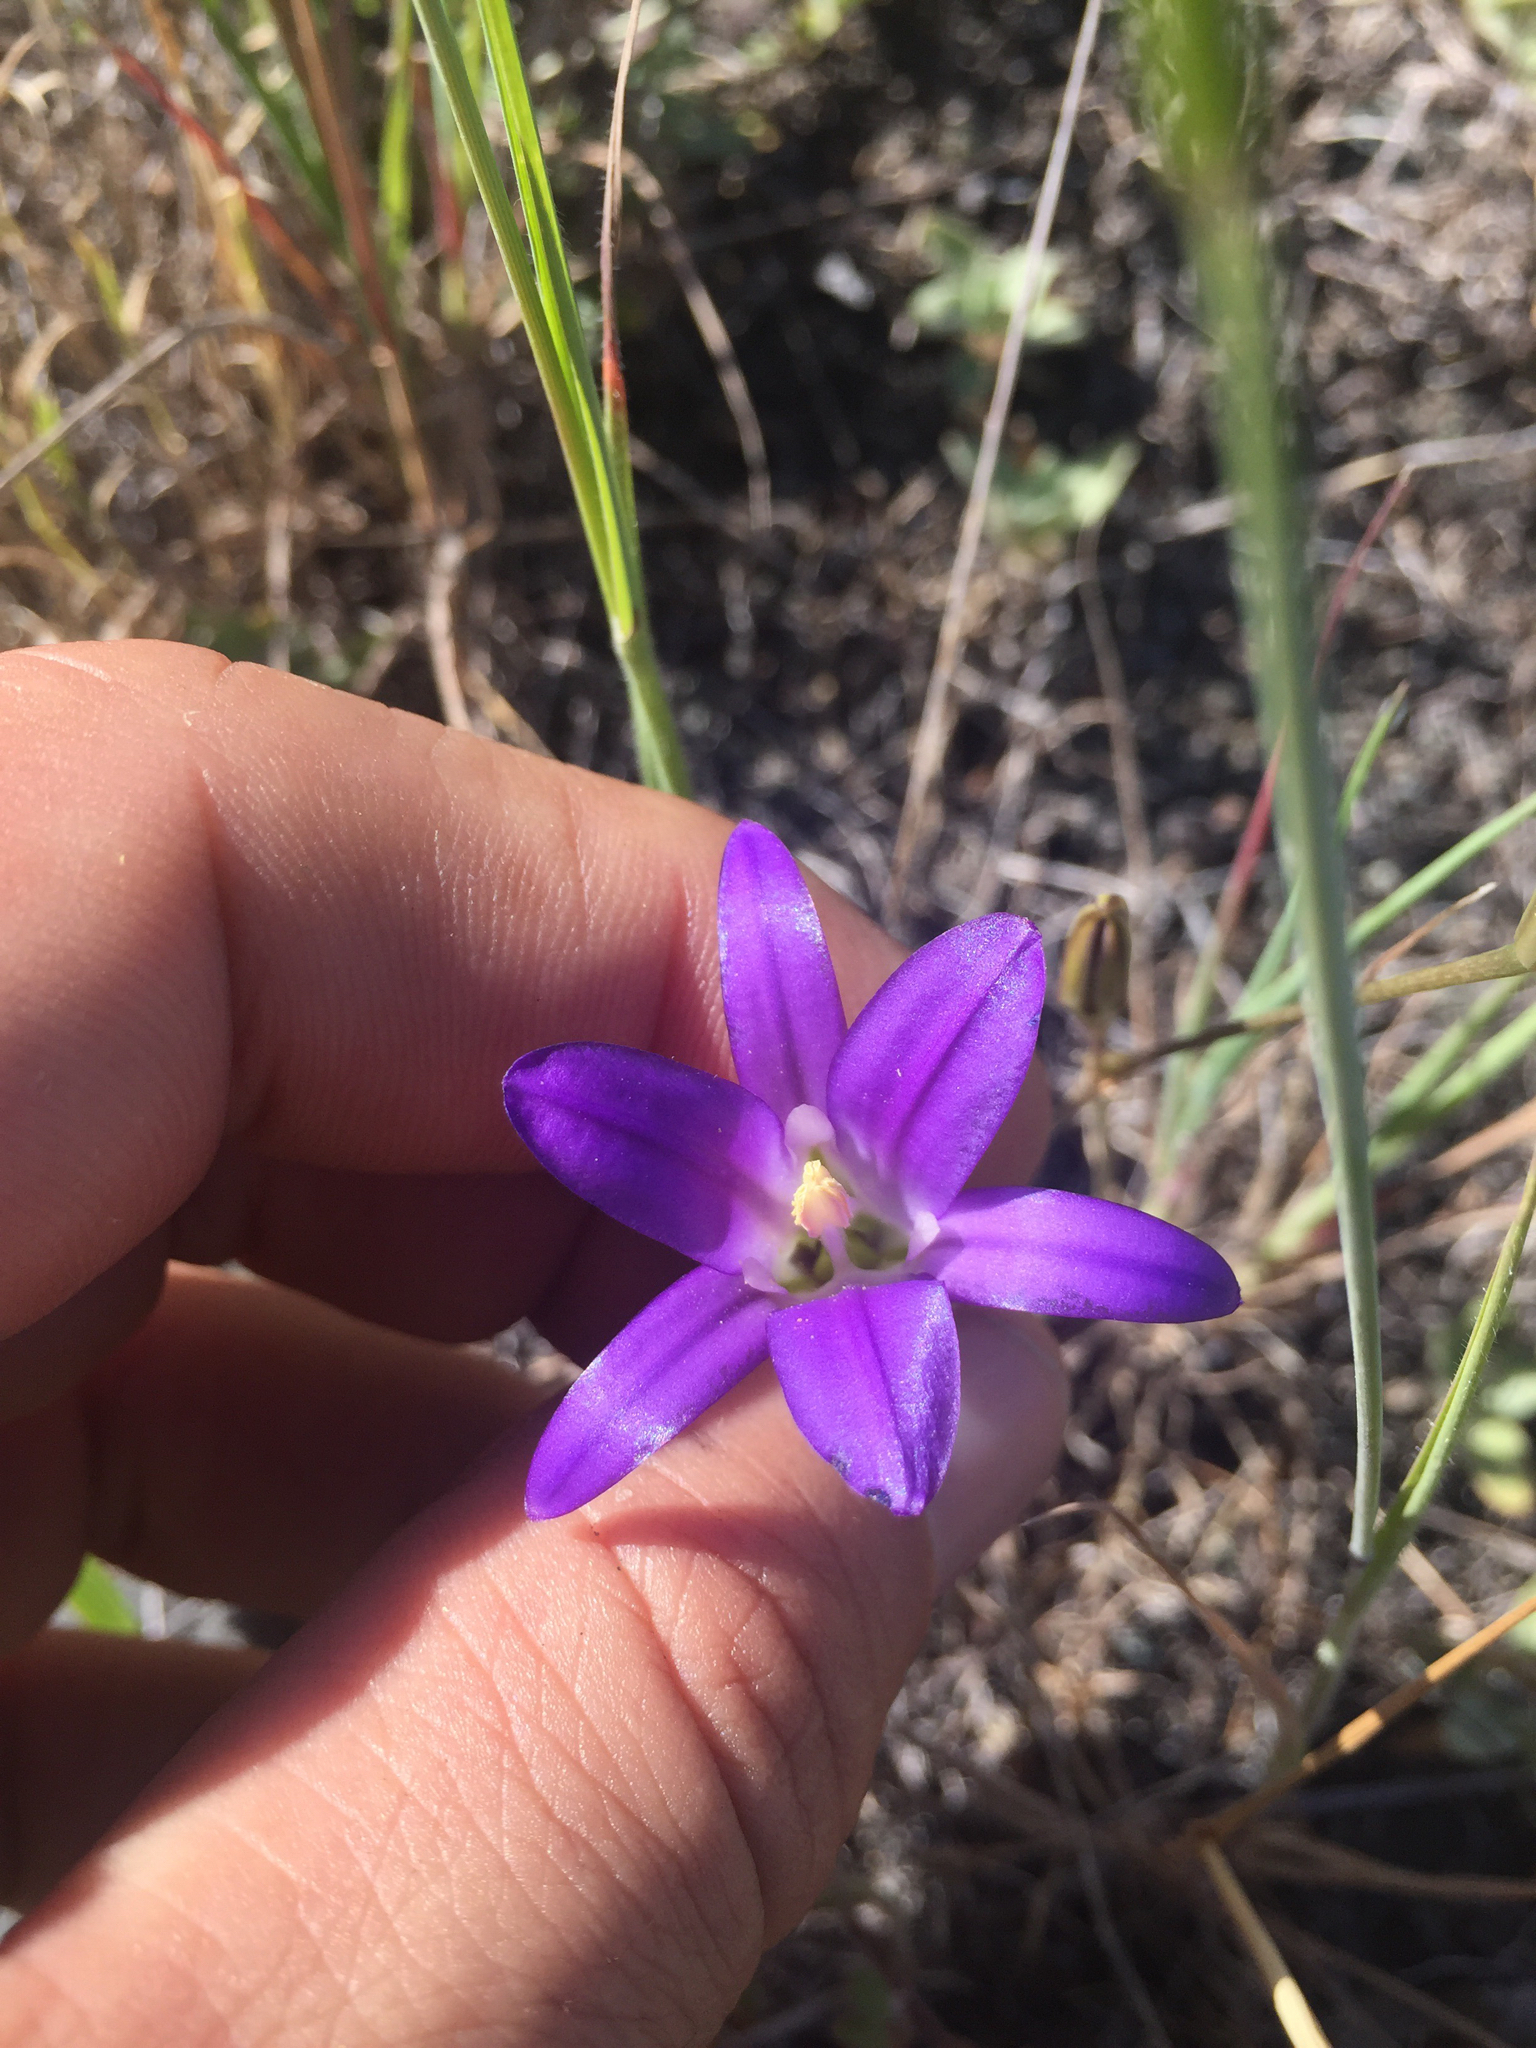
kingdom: Plantae
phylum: Tracheophyta
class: Liliopsida
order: Asparagales
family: Asparagaceae
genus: Brodiaea
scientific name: Brodiaea elegans
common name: Elegant cluster-lily
